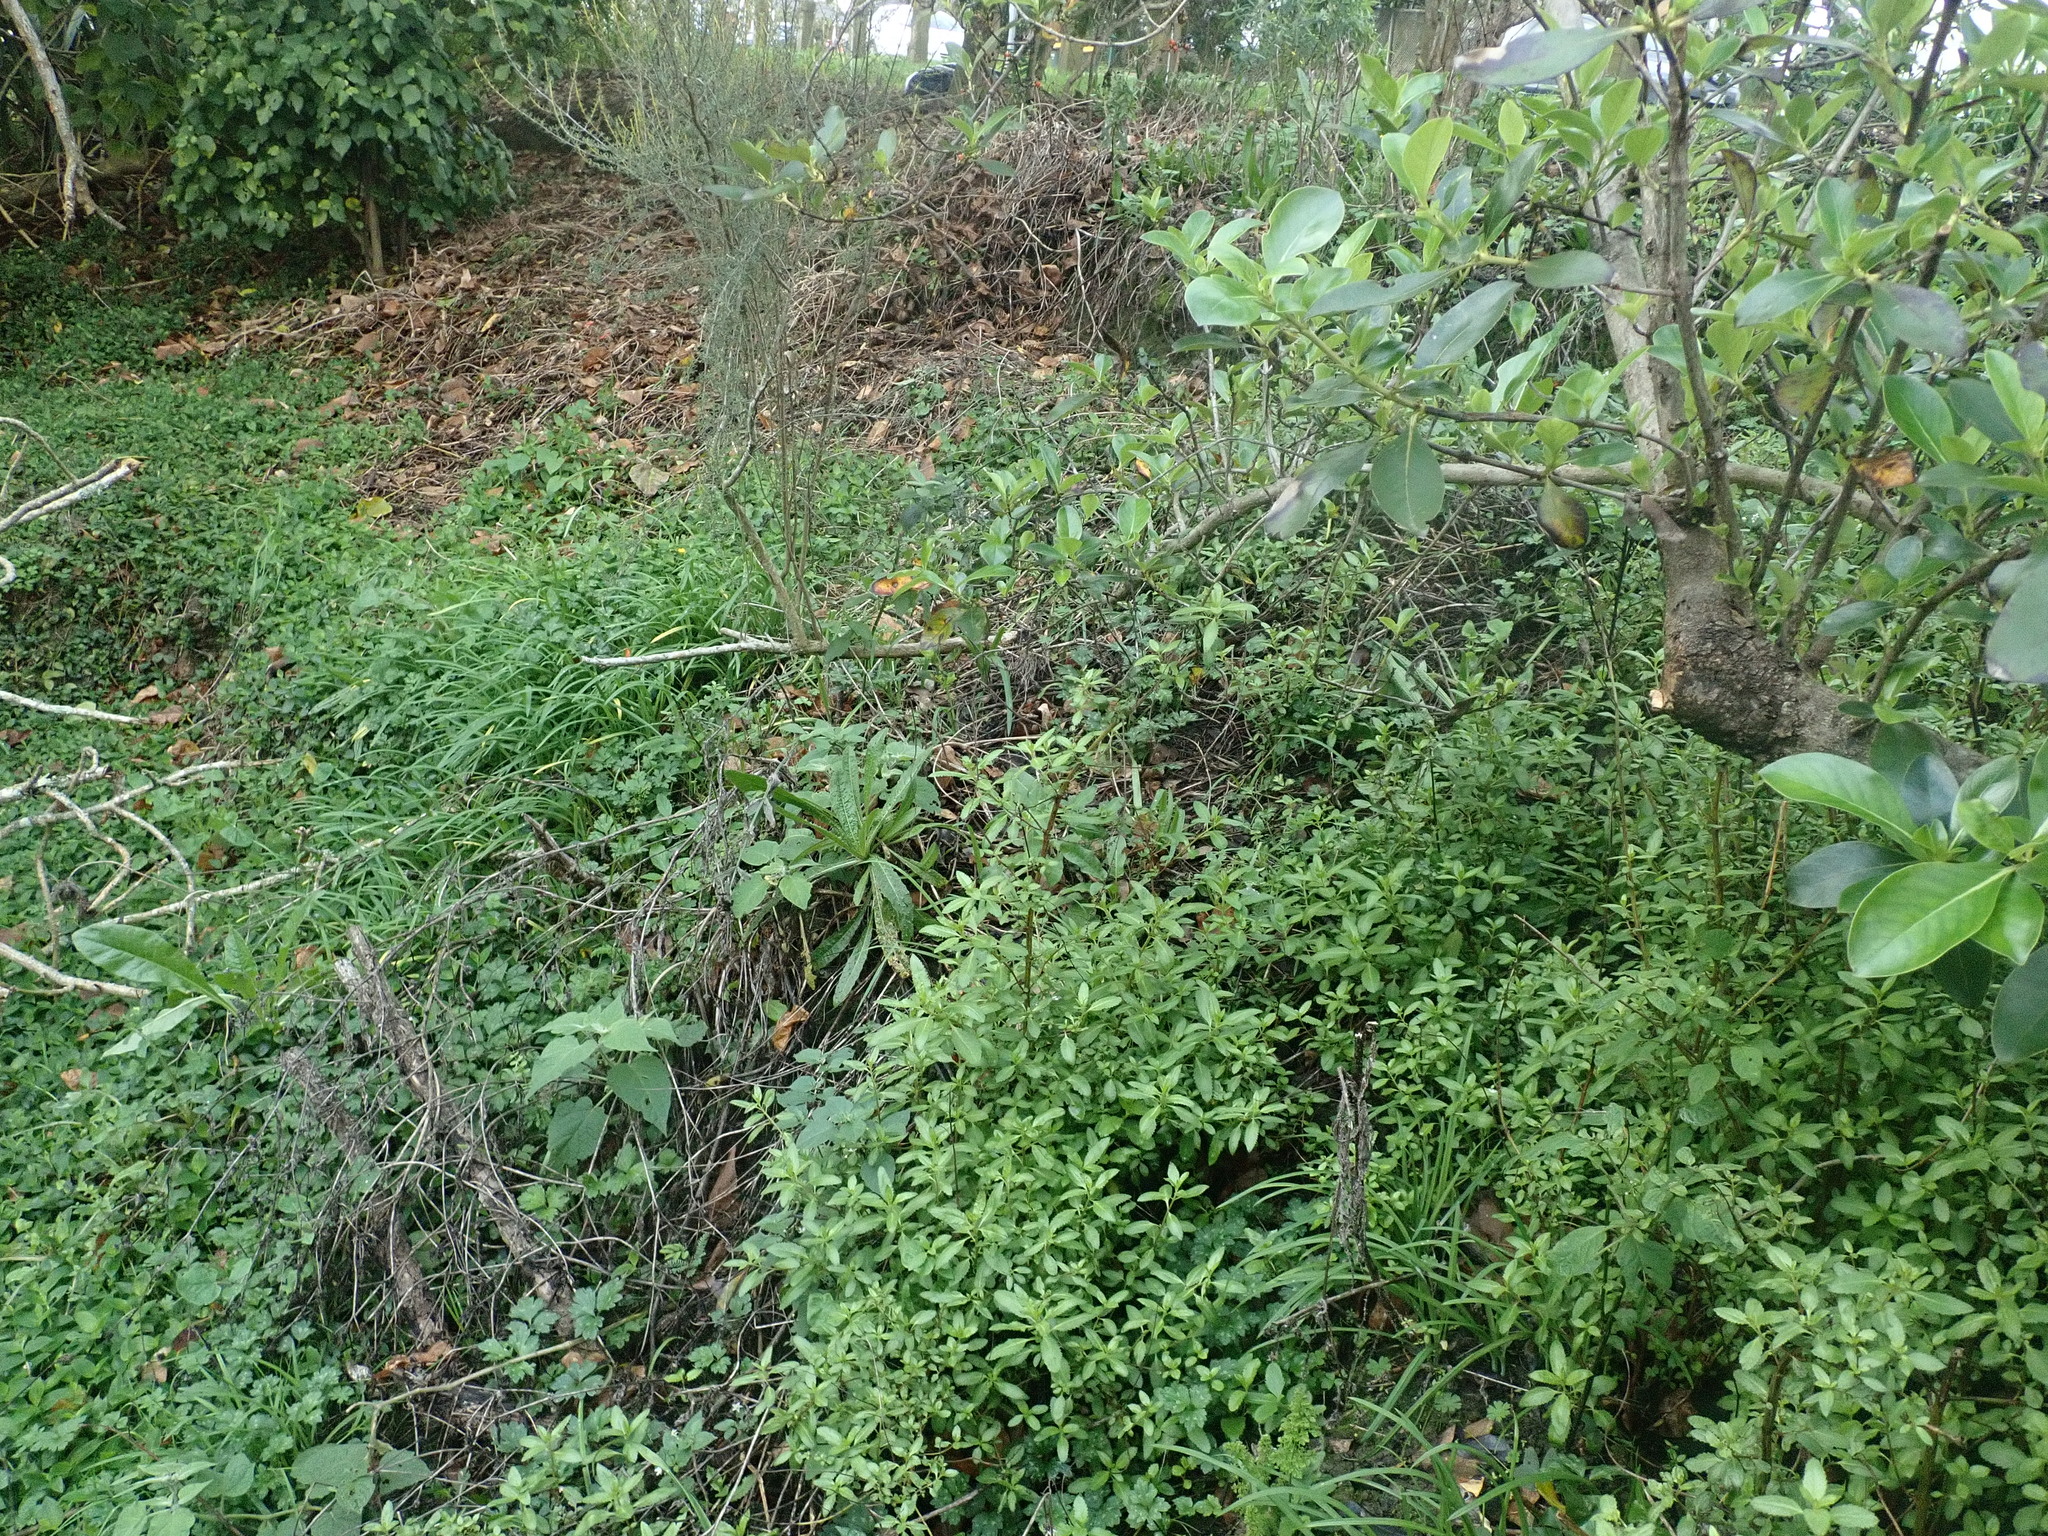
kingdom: Plantae
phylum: Tracheophyta
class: Magnoliopsida
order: Saxifragales
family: Haloragaceae
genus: Haloragis
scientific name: Haloragis erecta
